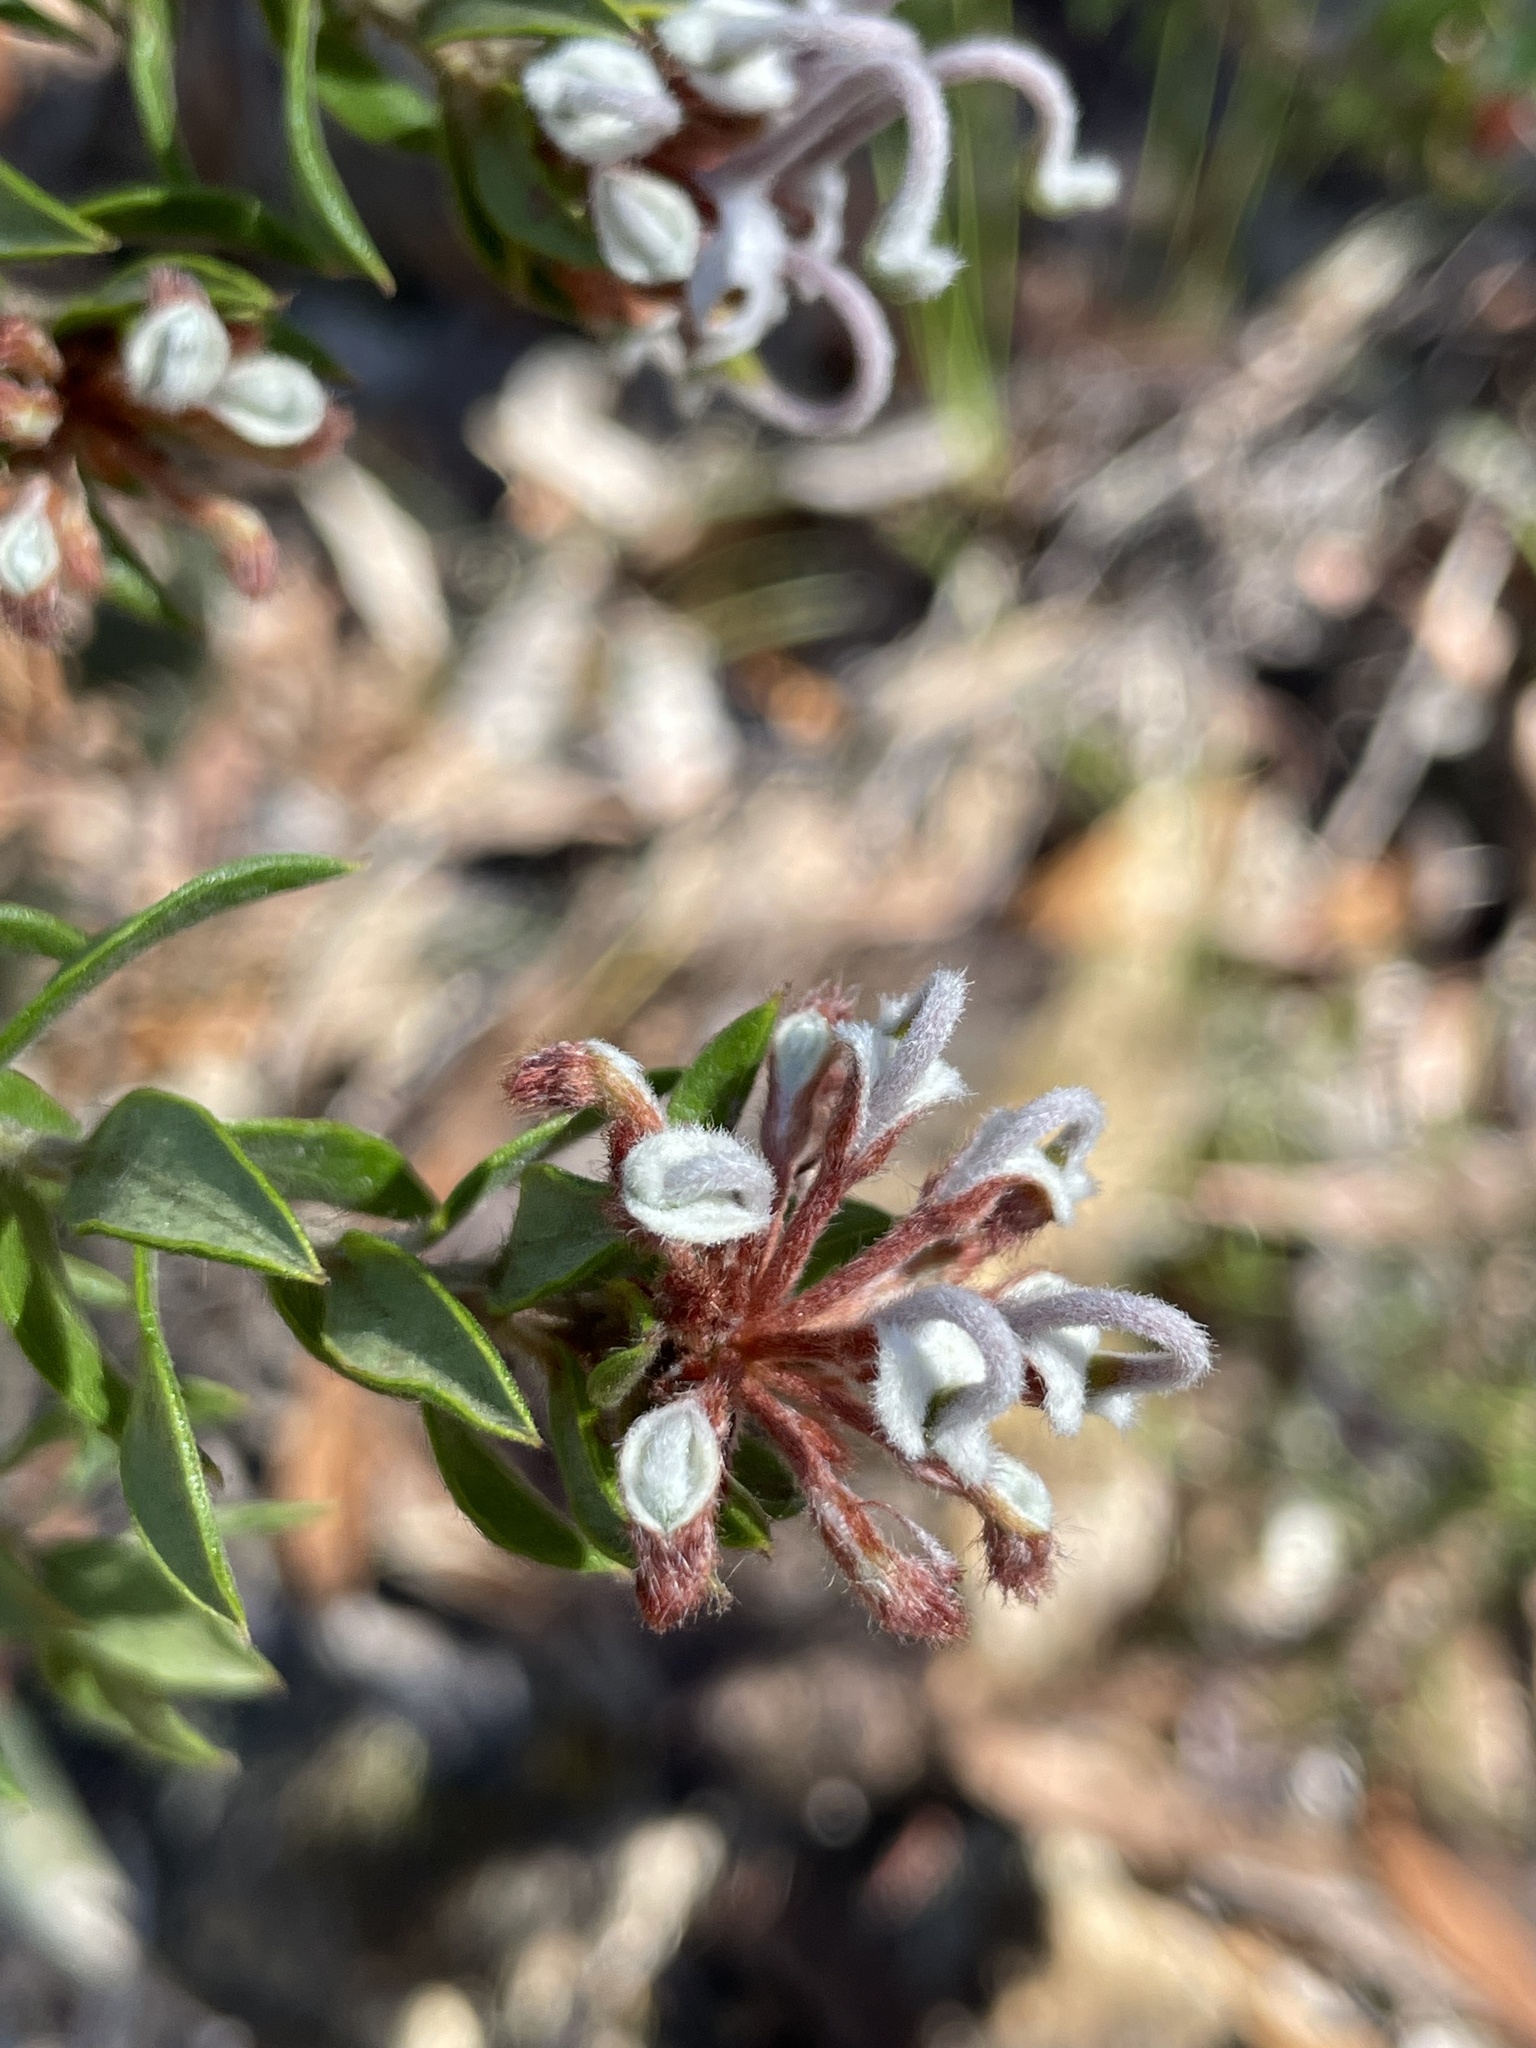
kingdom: Plantae
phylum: Tracheophyta
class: Magnoliopsida
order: Proteales
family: Proteaceae
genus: Grevillea
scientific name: Grevillea buxifolia
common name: Grey spiderflower
